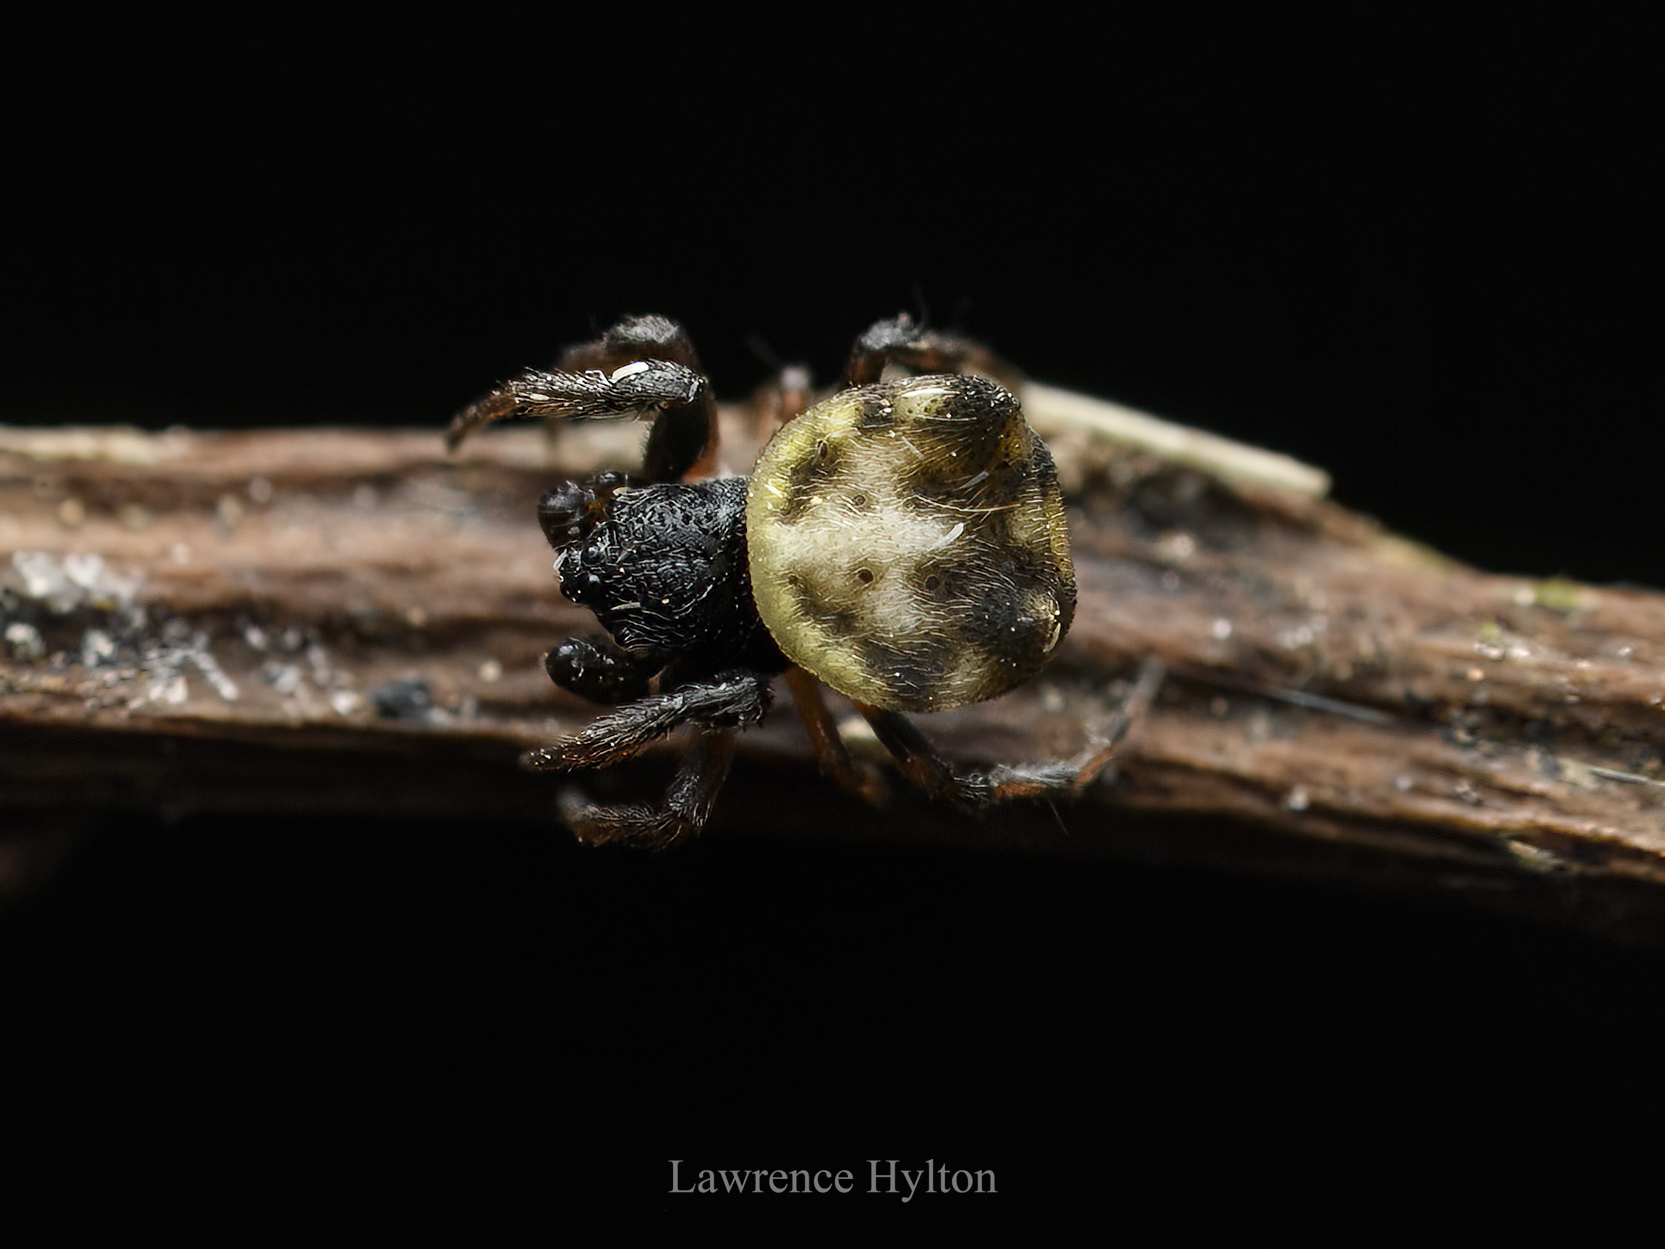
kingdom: Animalia
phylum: Arthropoda
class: Arachnida
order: Araneae
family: Araneidae
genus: Gasteracantha
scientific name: Gasteracantha kuhli
